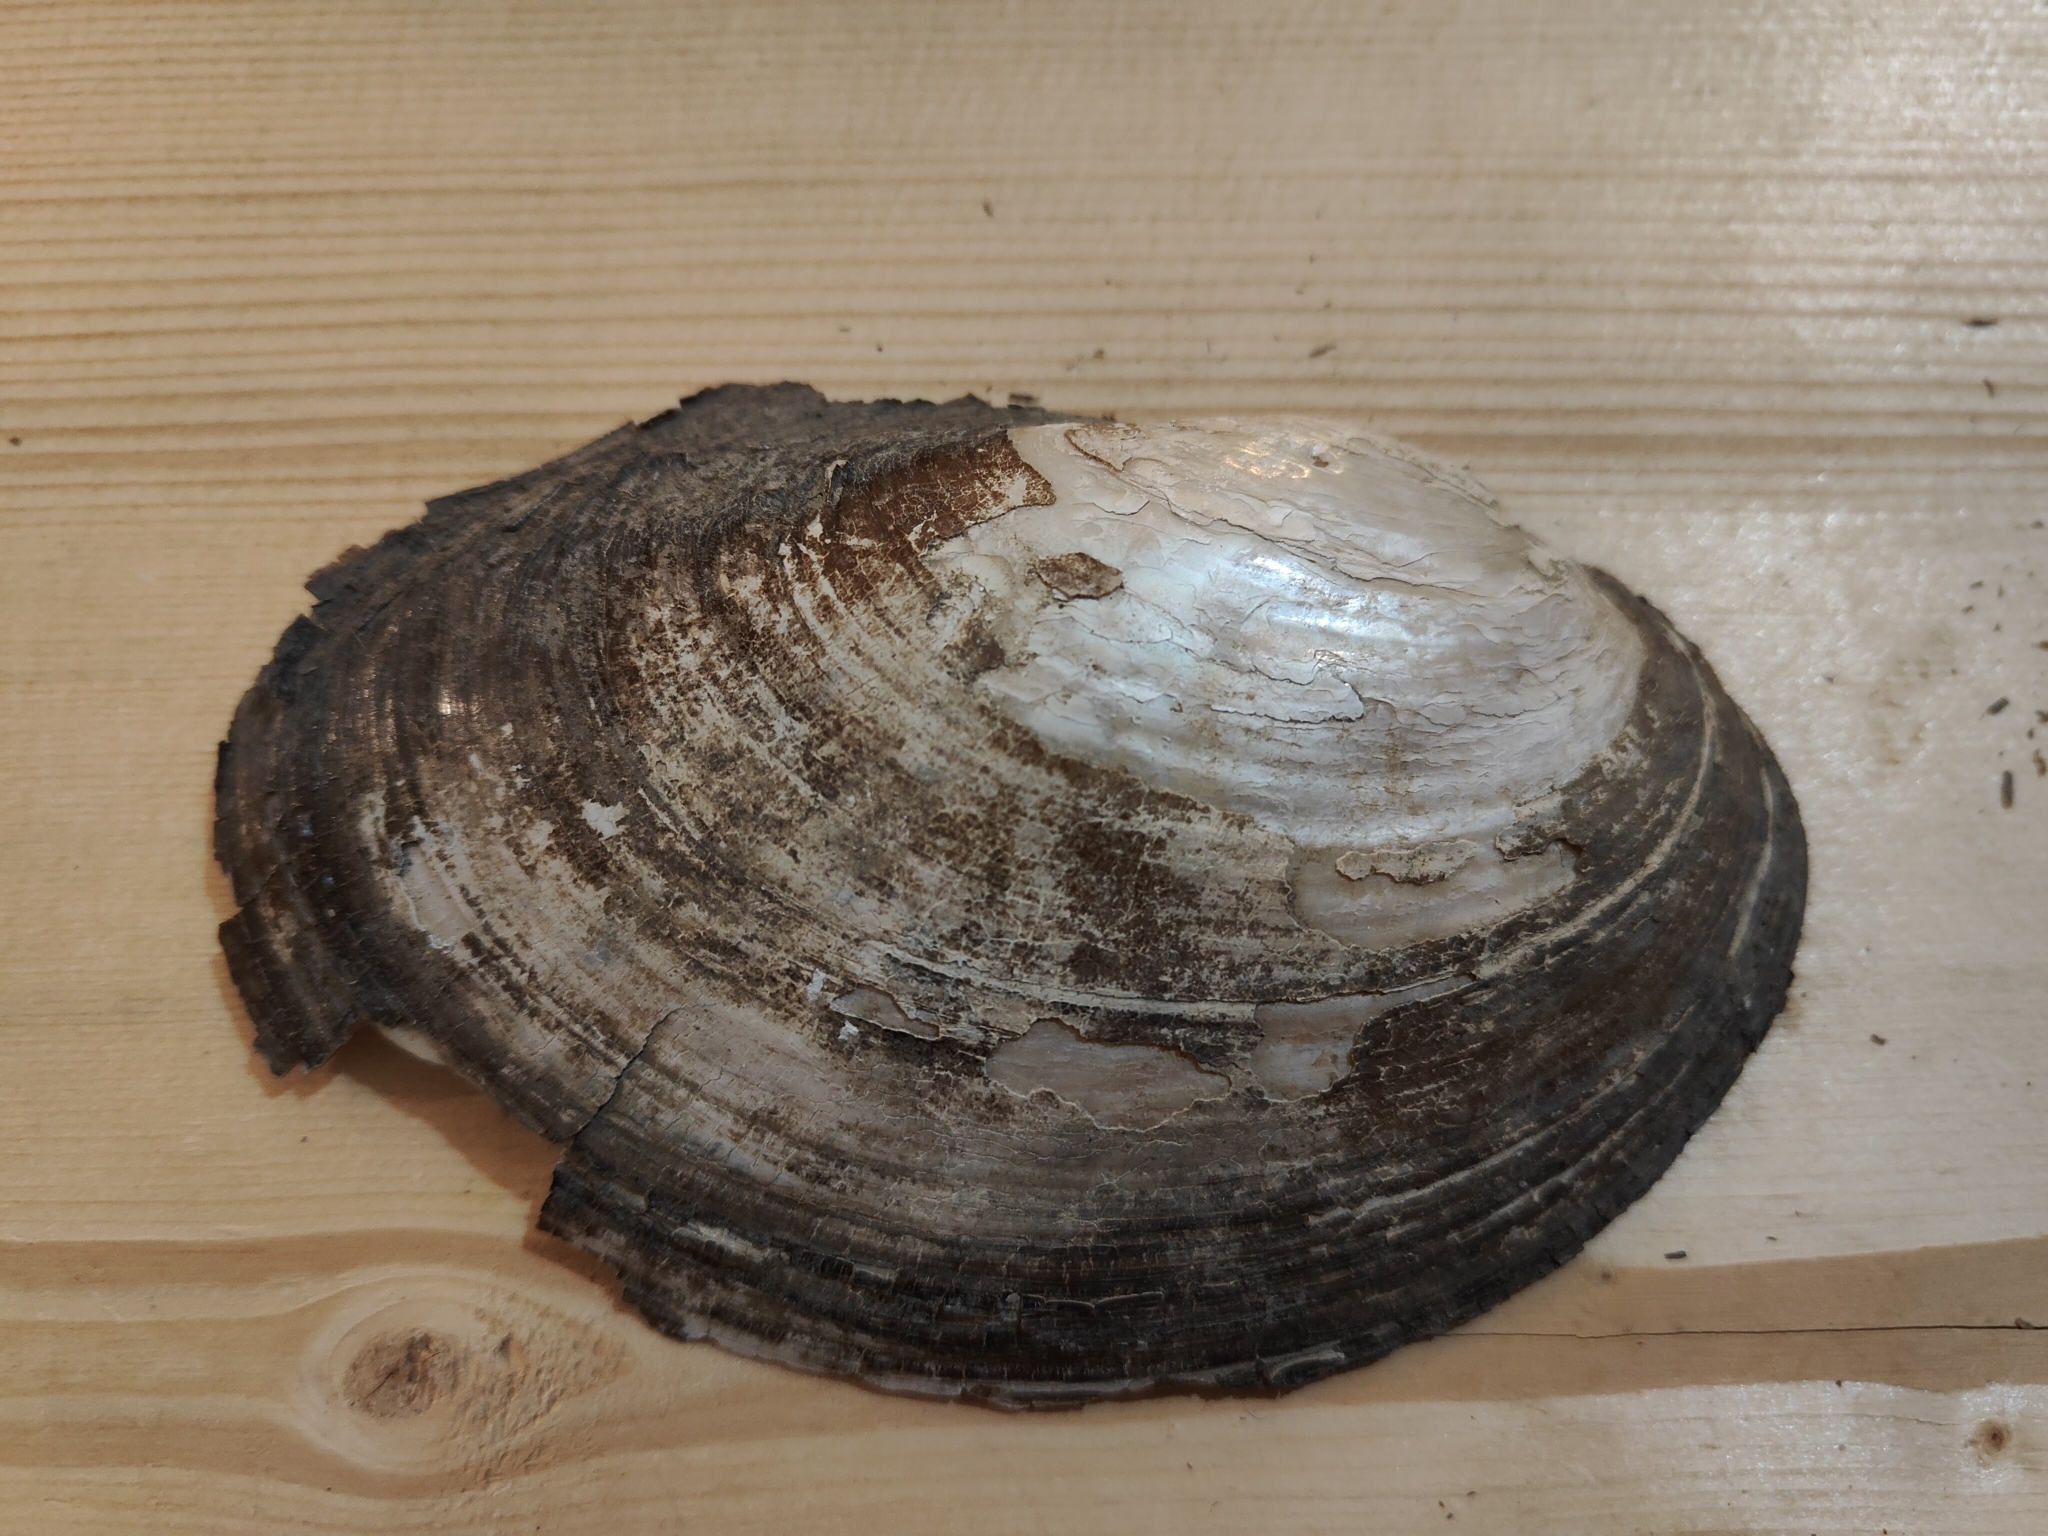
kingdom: Animalia
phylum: Mollusca
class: Bivalvia
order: Unionida
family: Unionidae
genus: Potamilus
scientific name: Potamilus fragilis
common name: Fragile papershell
